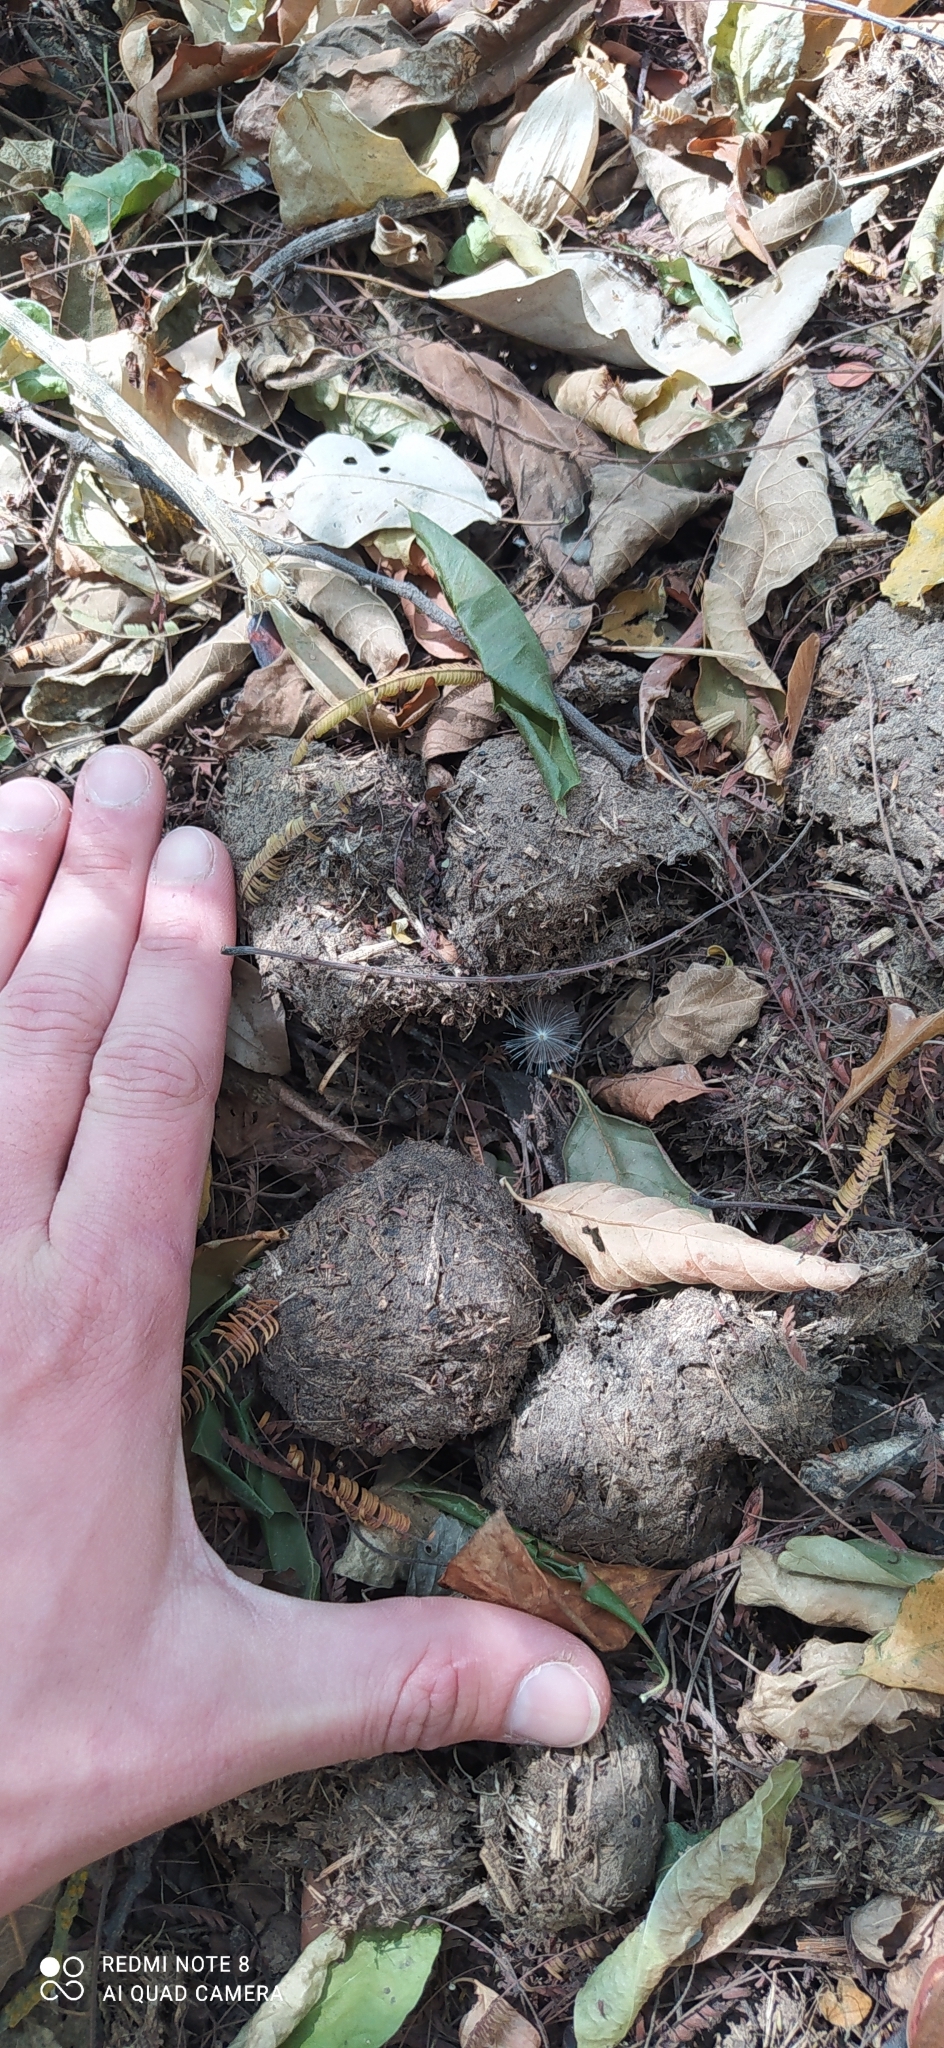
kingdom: Animalia
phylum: Chordata
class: Mammalia
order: Perissodactyla
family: Tapiridae
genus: Tapirus
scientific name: Tapirus terrestris
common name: Brazilian tapir
